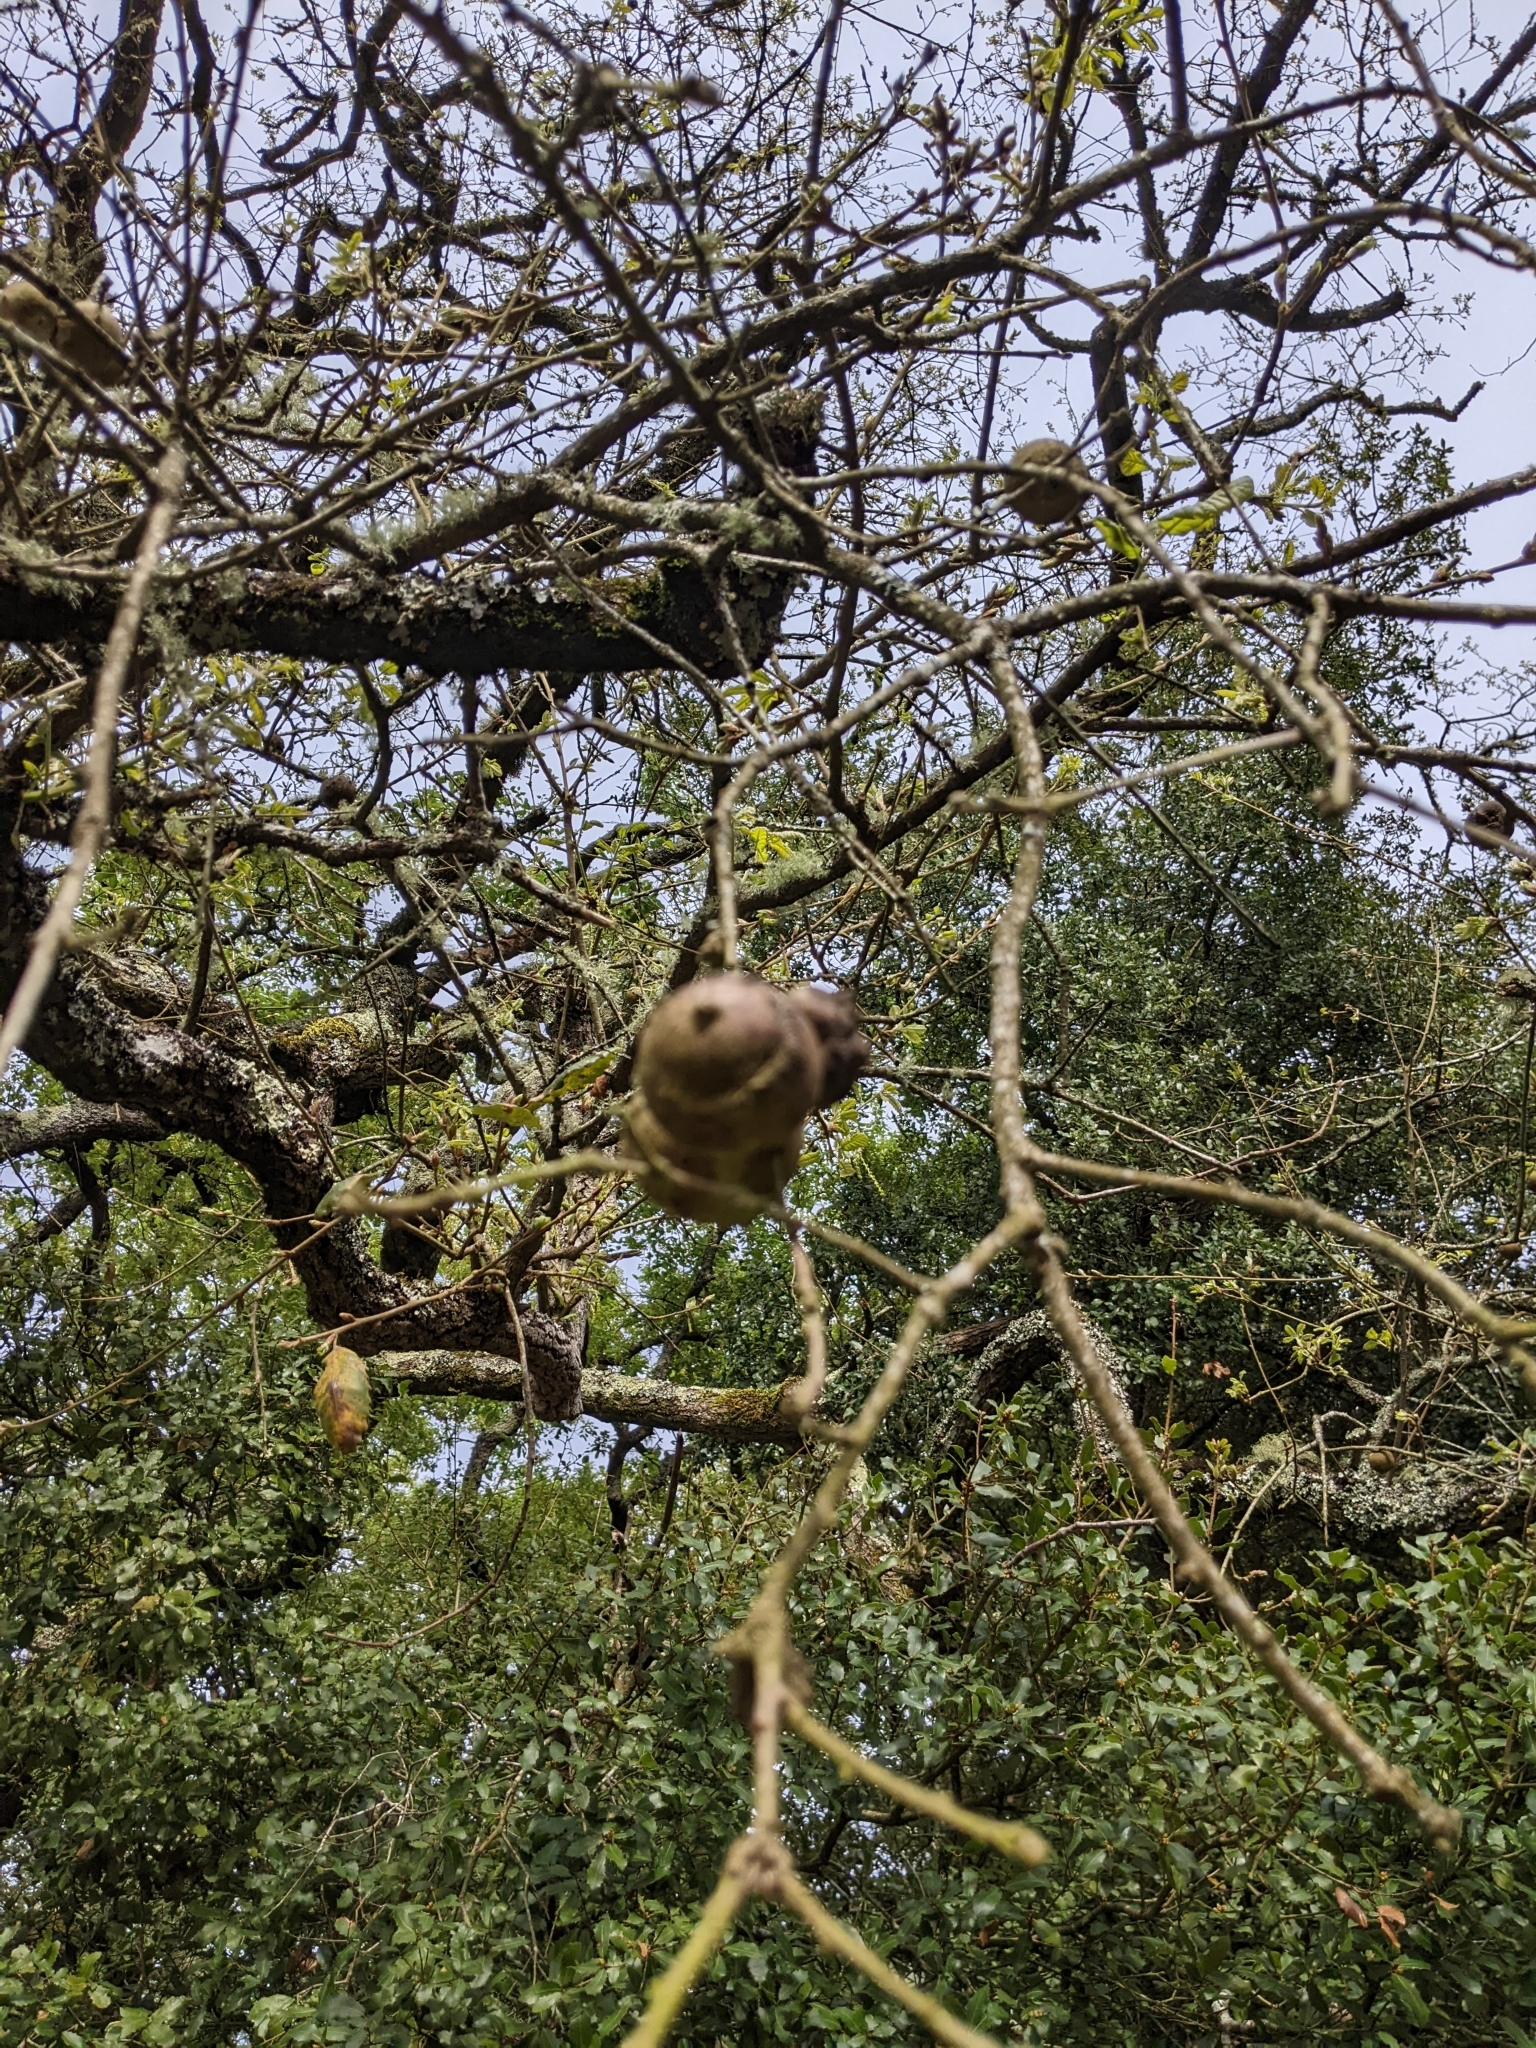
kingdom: Animalia
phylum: Arthropoda
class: Insecta
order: Hymenoptera
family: Cynipidae
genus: Andricus
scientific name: Andricus quercustozae
